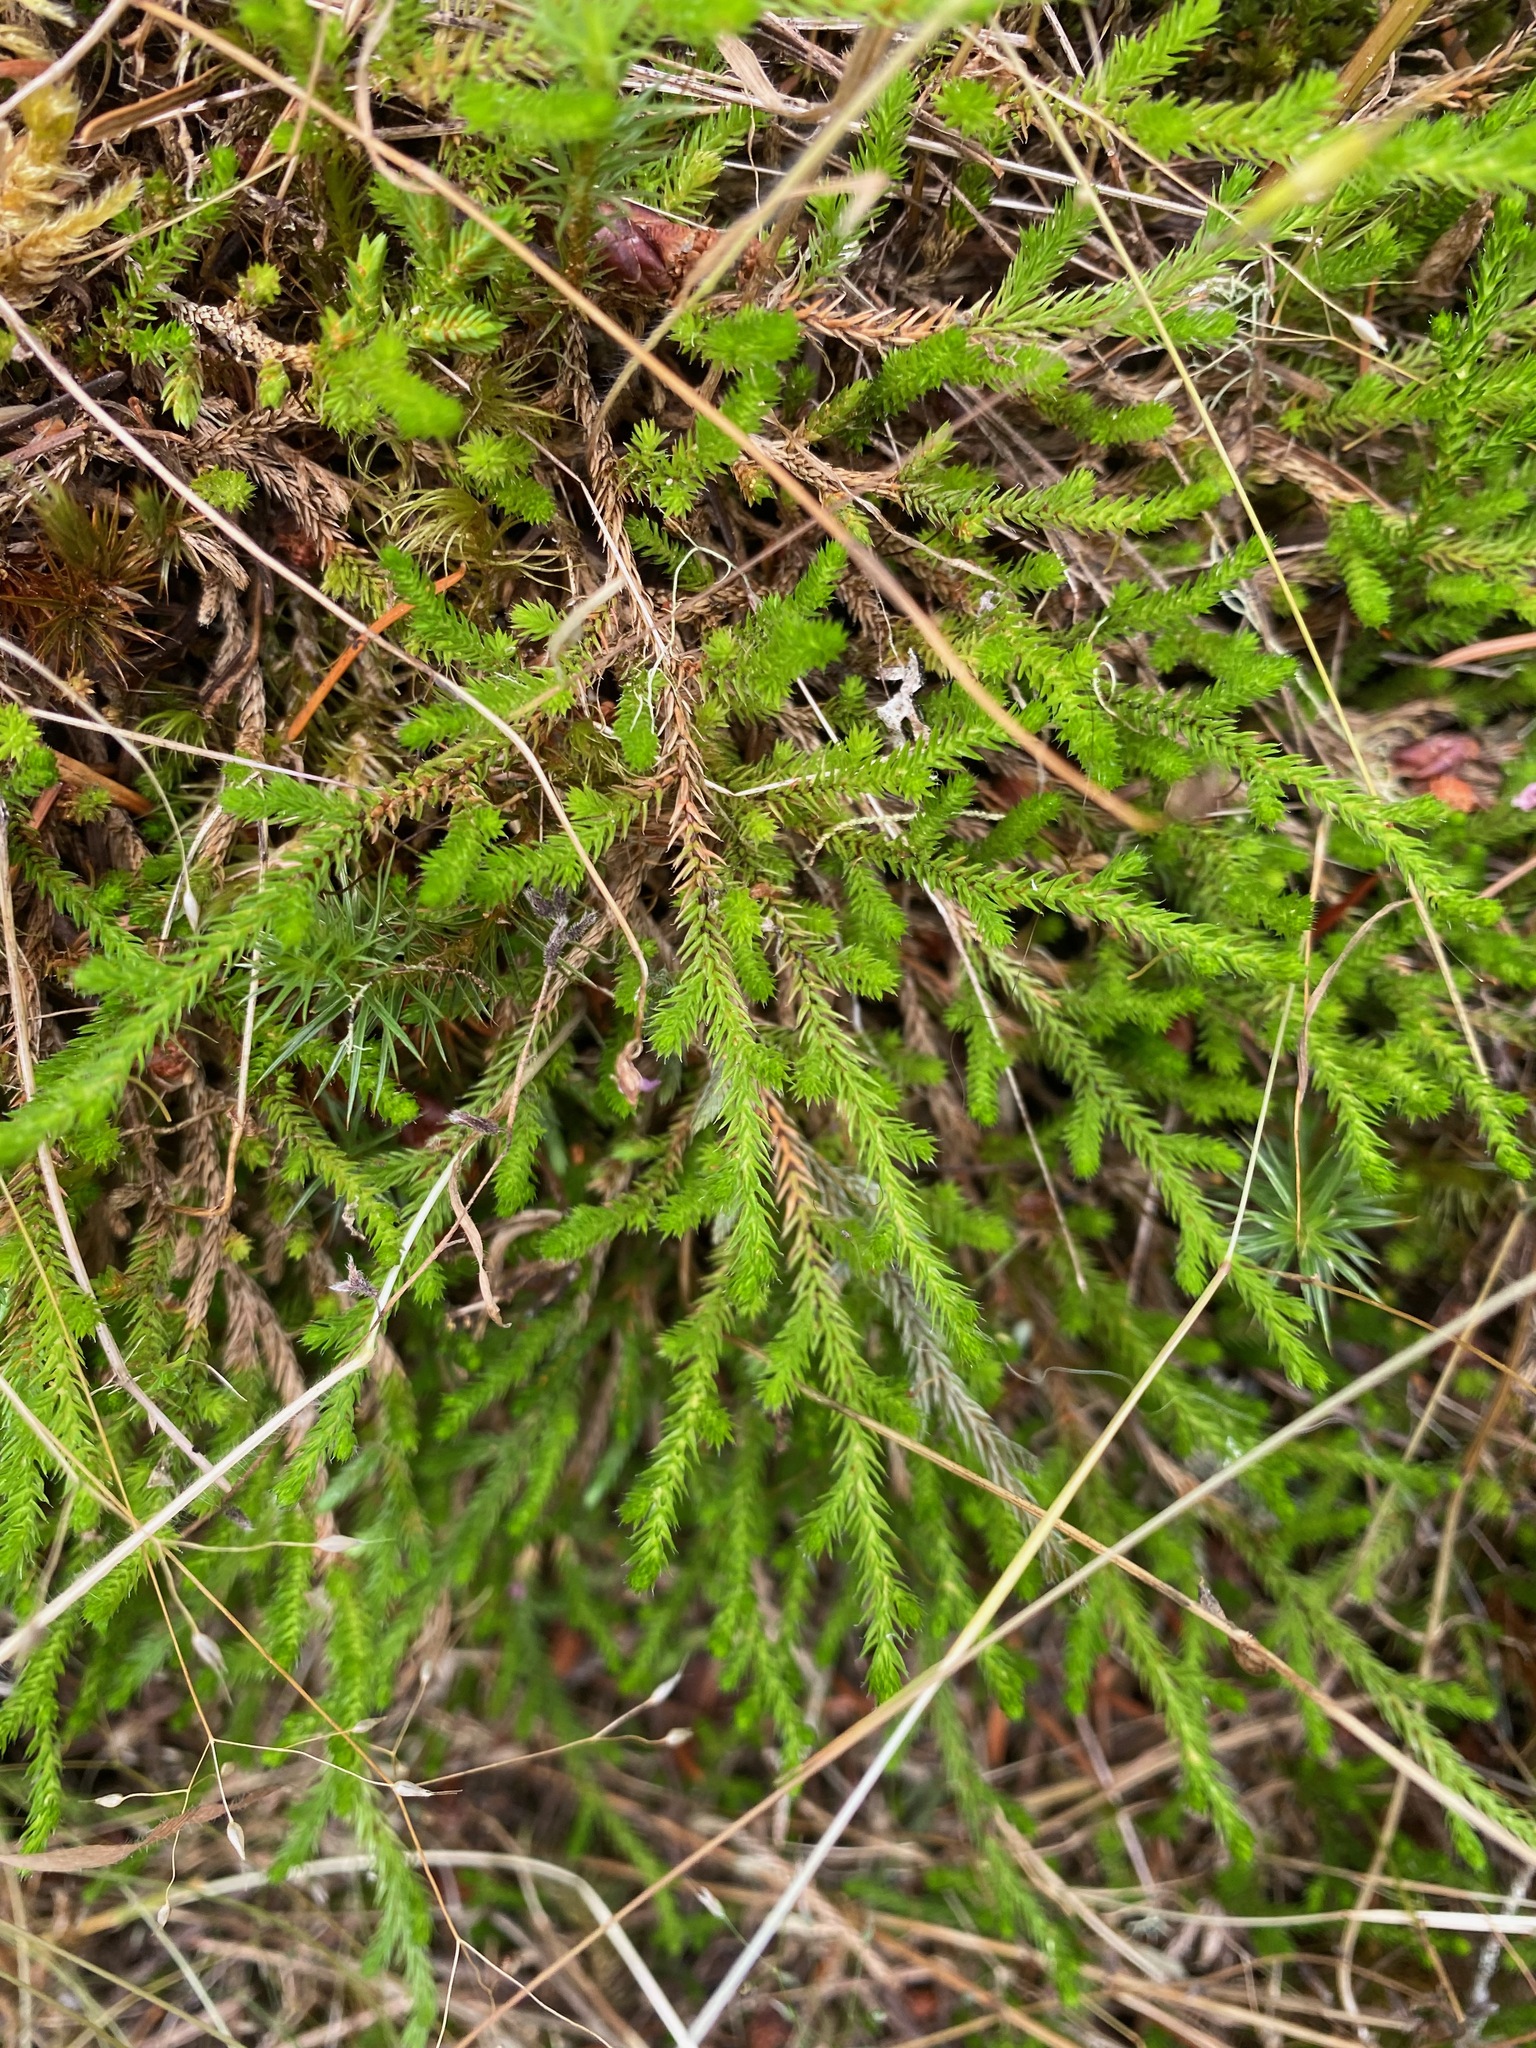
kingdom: Plantae
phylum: Tracheophyta
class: Lycopodiopsida
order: Selaginellales
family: Selaginellaceae
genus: Selaginella
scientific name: Selaginella wallacei
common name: Wallace's selaginella
